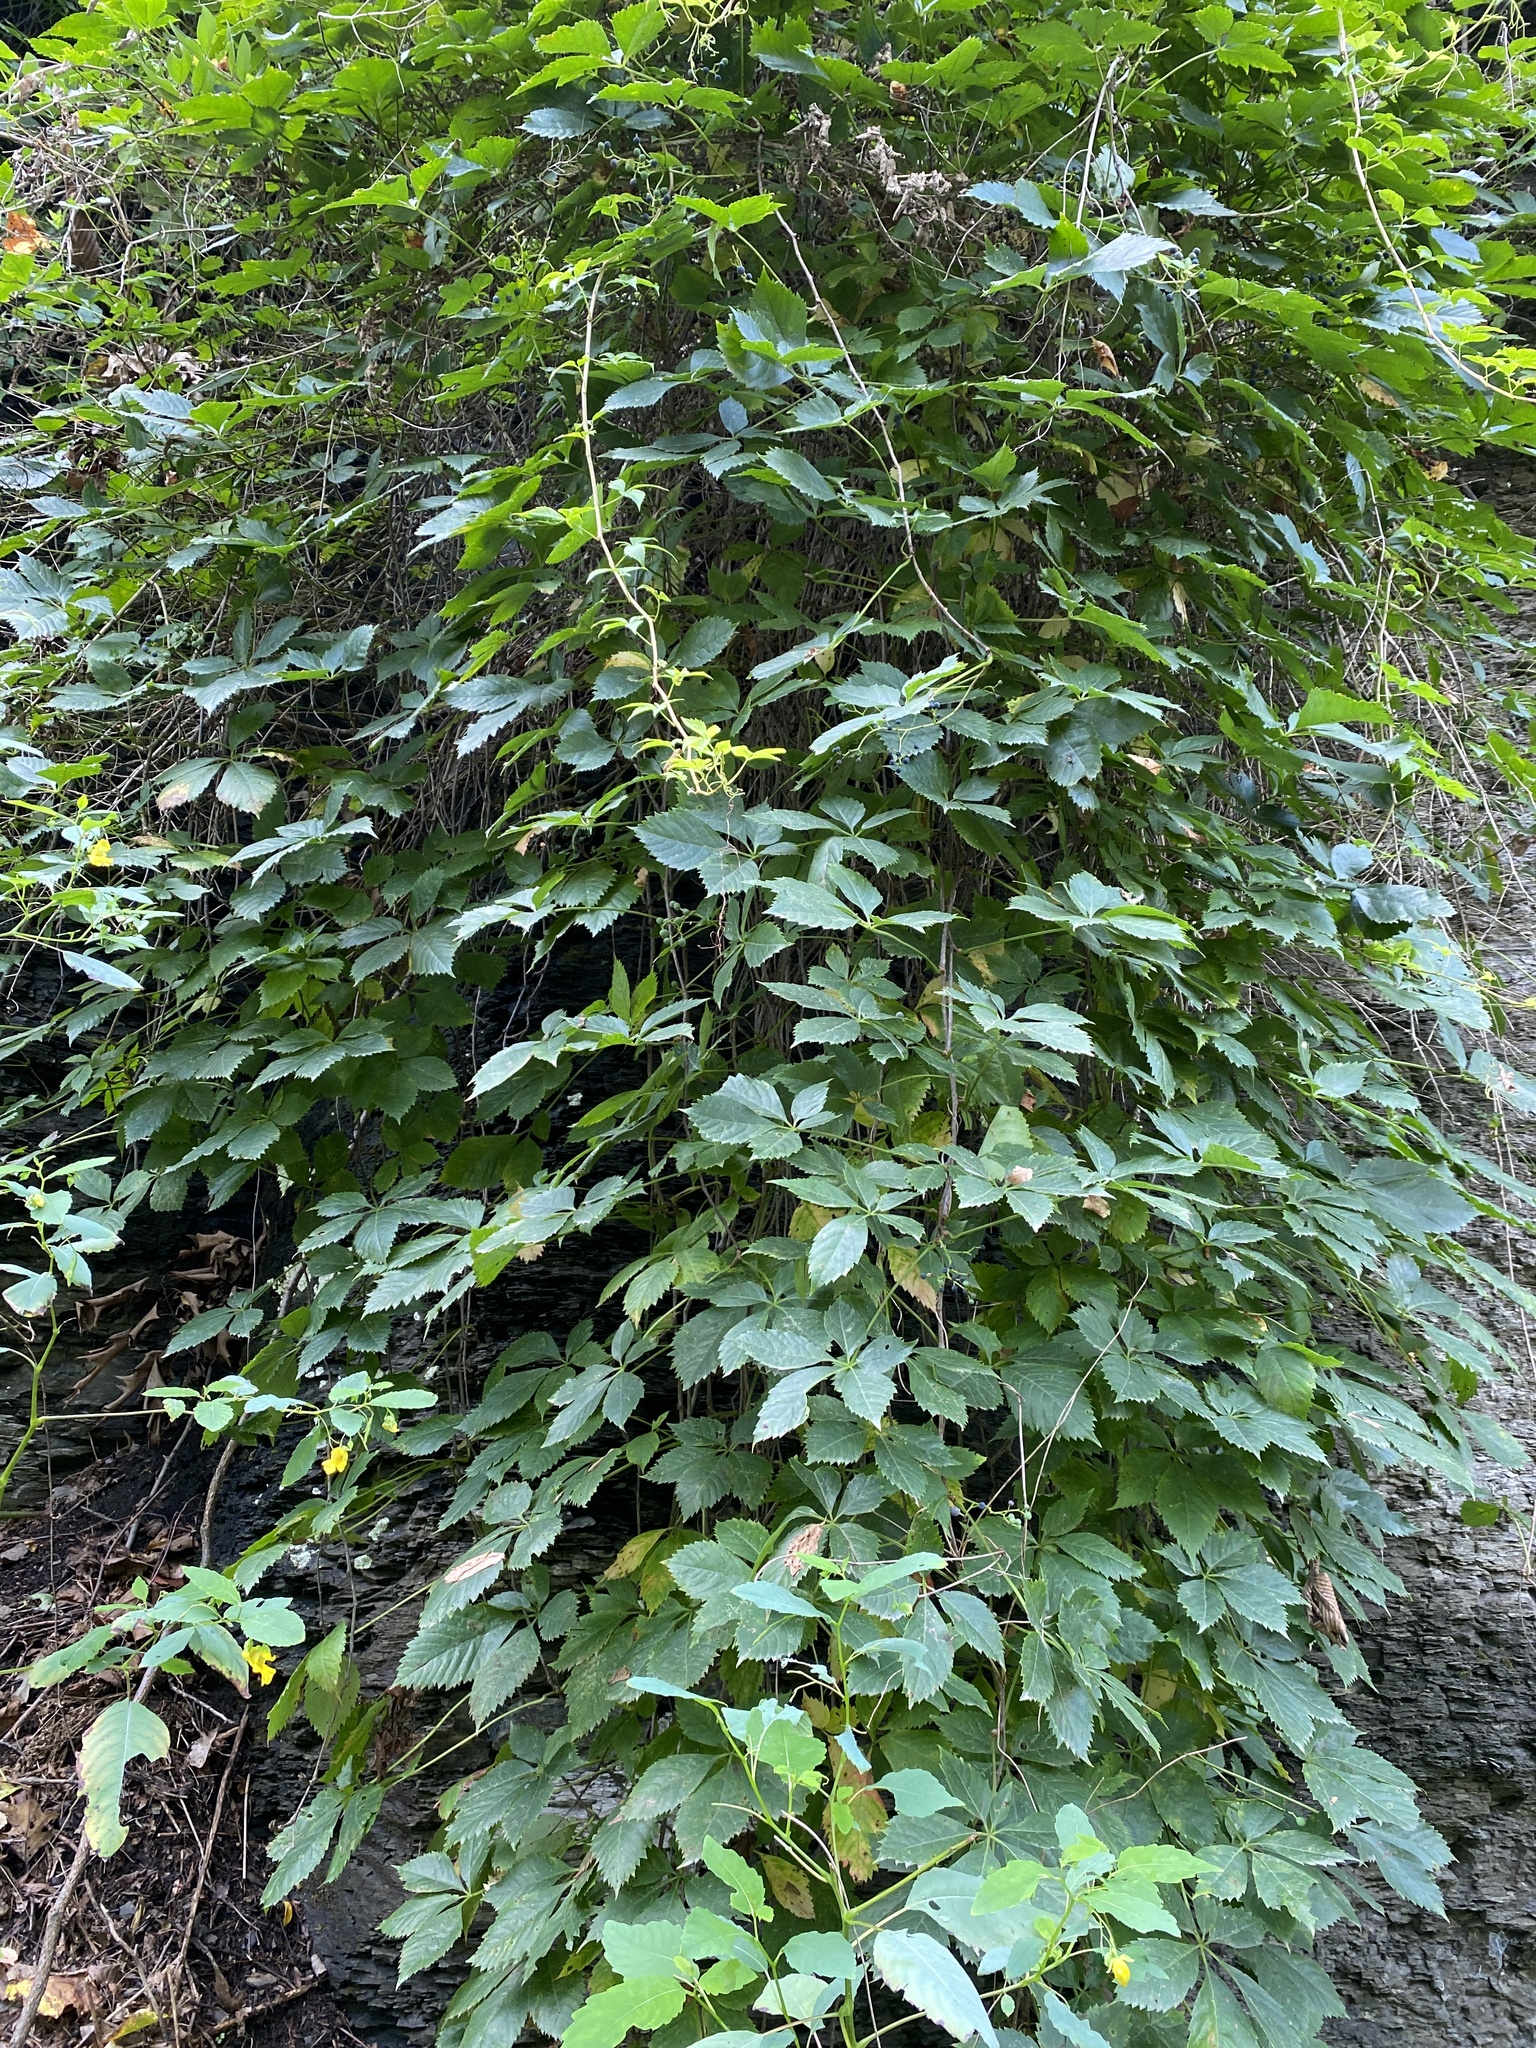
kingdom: Plantae
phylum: Tracheophyta
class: Magnoliopsida
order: Vitales
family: Vitaceae
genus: Parthenocissus
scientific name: Parthenocissus quinquefolia
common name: Virginia-creeper
